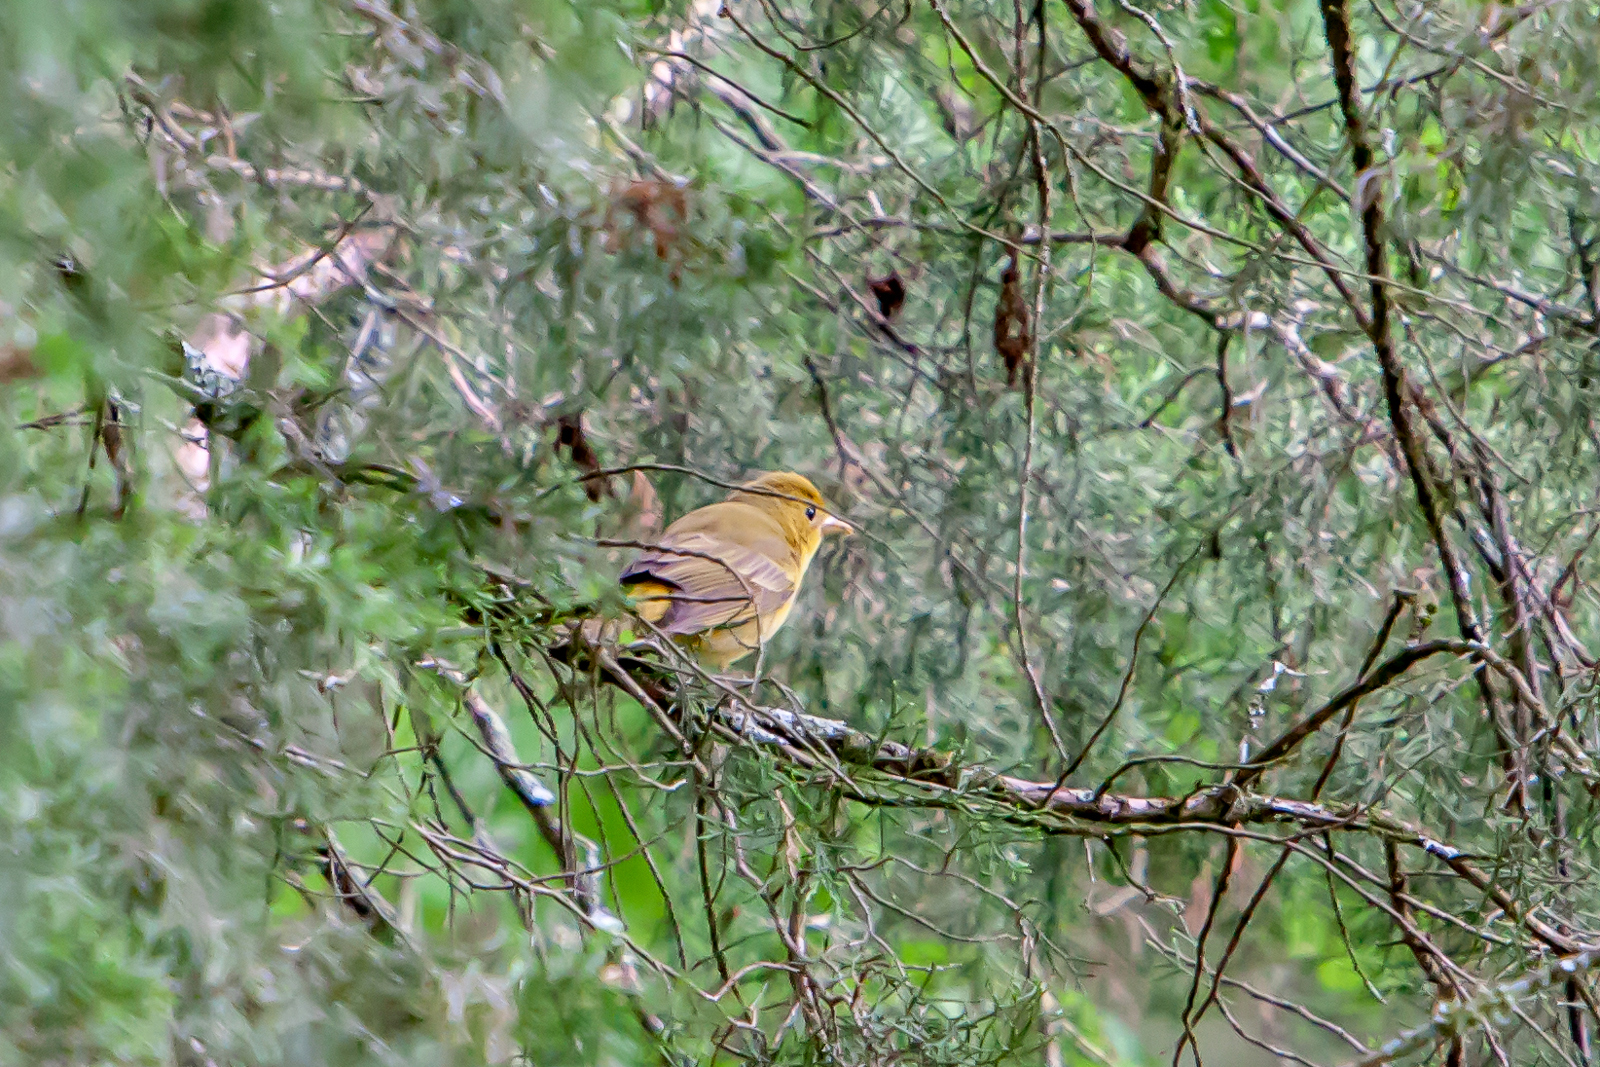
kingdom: Animalia
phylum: Chordata
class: Aves
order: Passeriformes
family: Cardinalidae
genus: Piranga
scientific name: Piranga rubra
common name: Summer tanager
